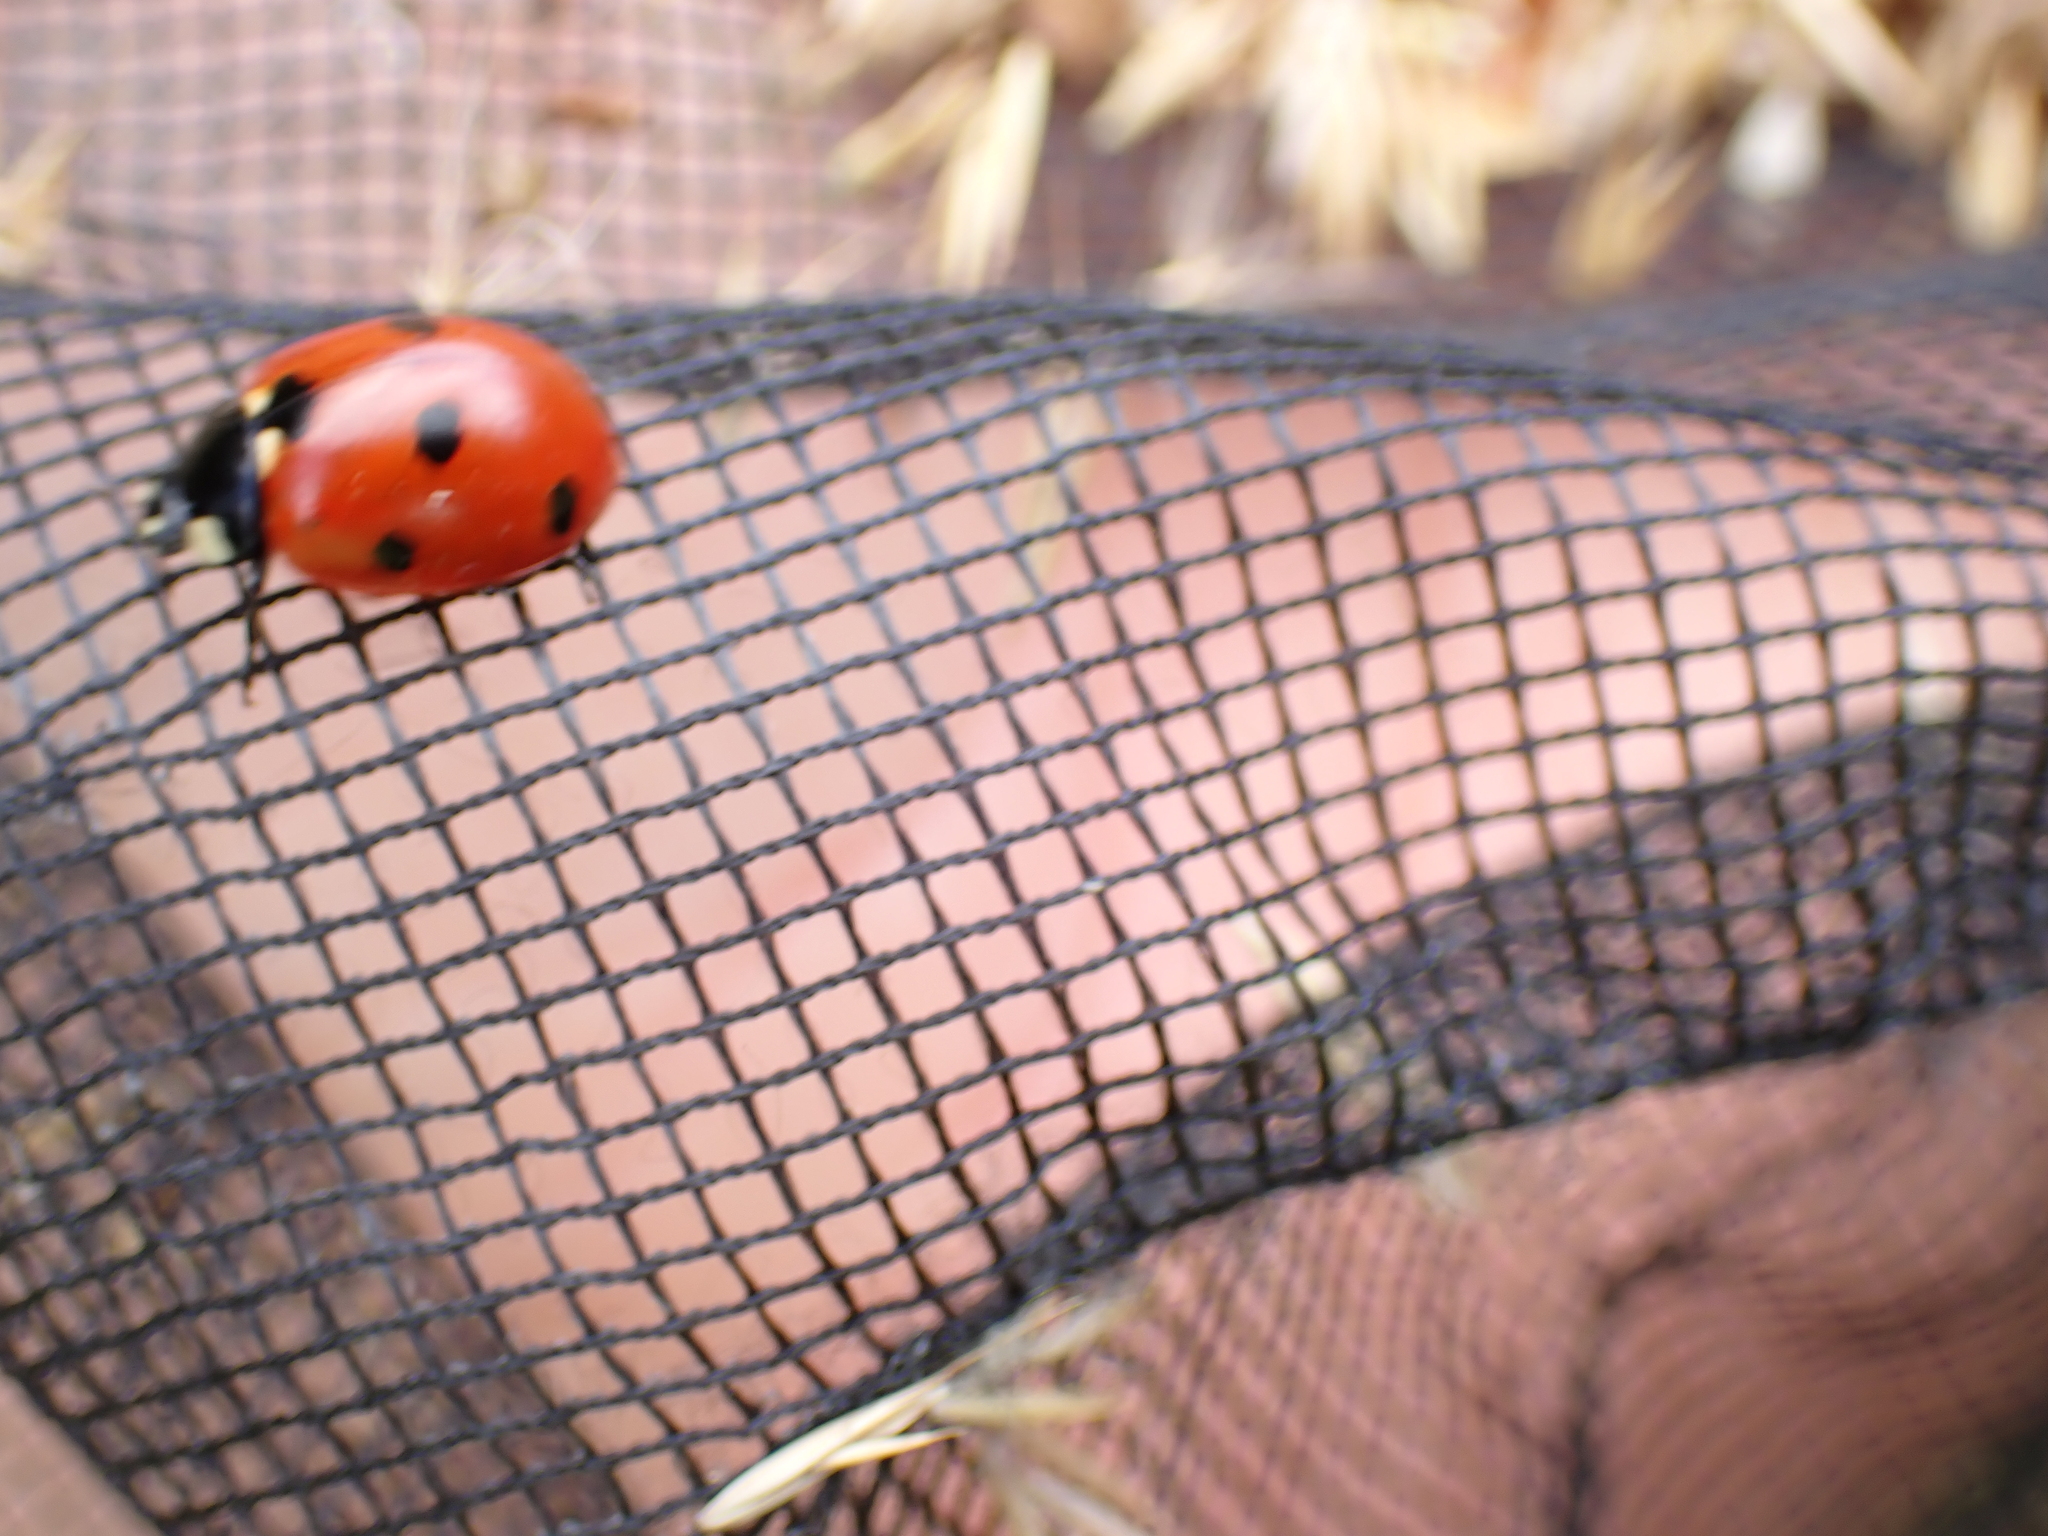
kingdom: Animalia
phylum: Arthropoda
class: Insecta
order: Coleoptera
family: Coccinellidae
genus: Coccinella
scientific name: Coccinella septempunctata
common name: Sevenspotted lady beetle
